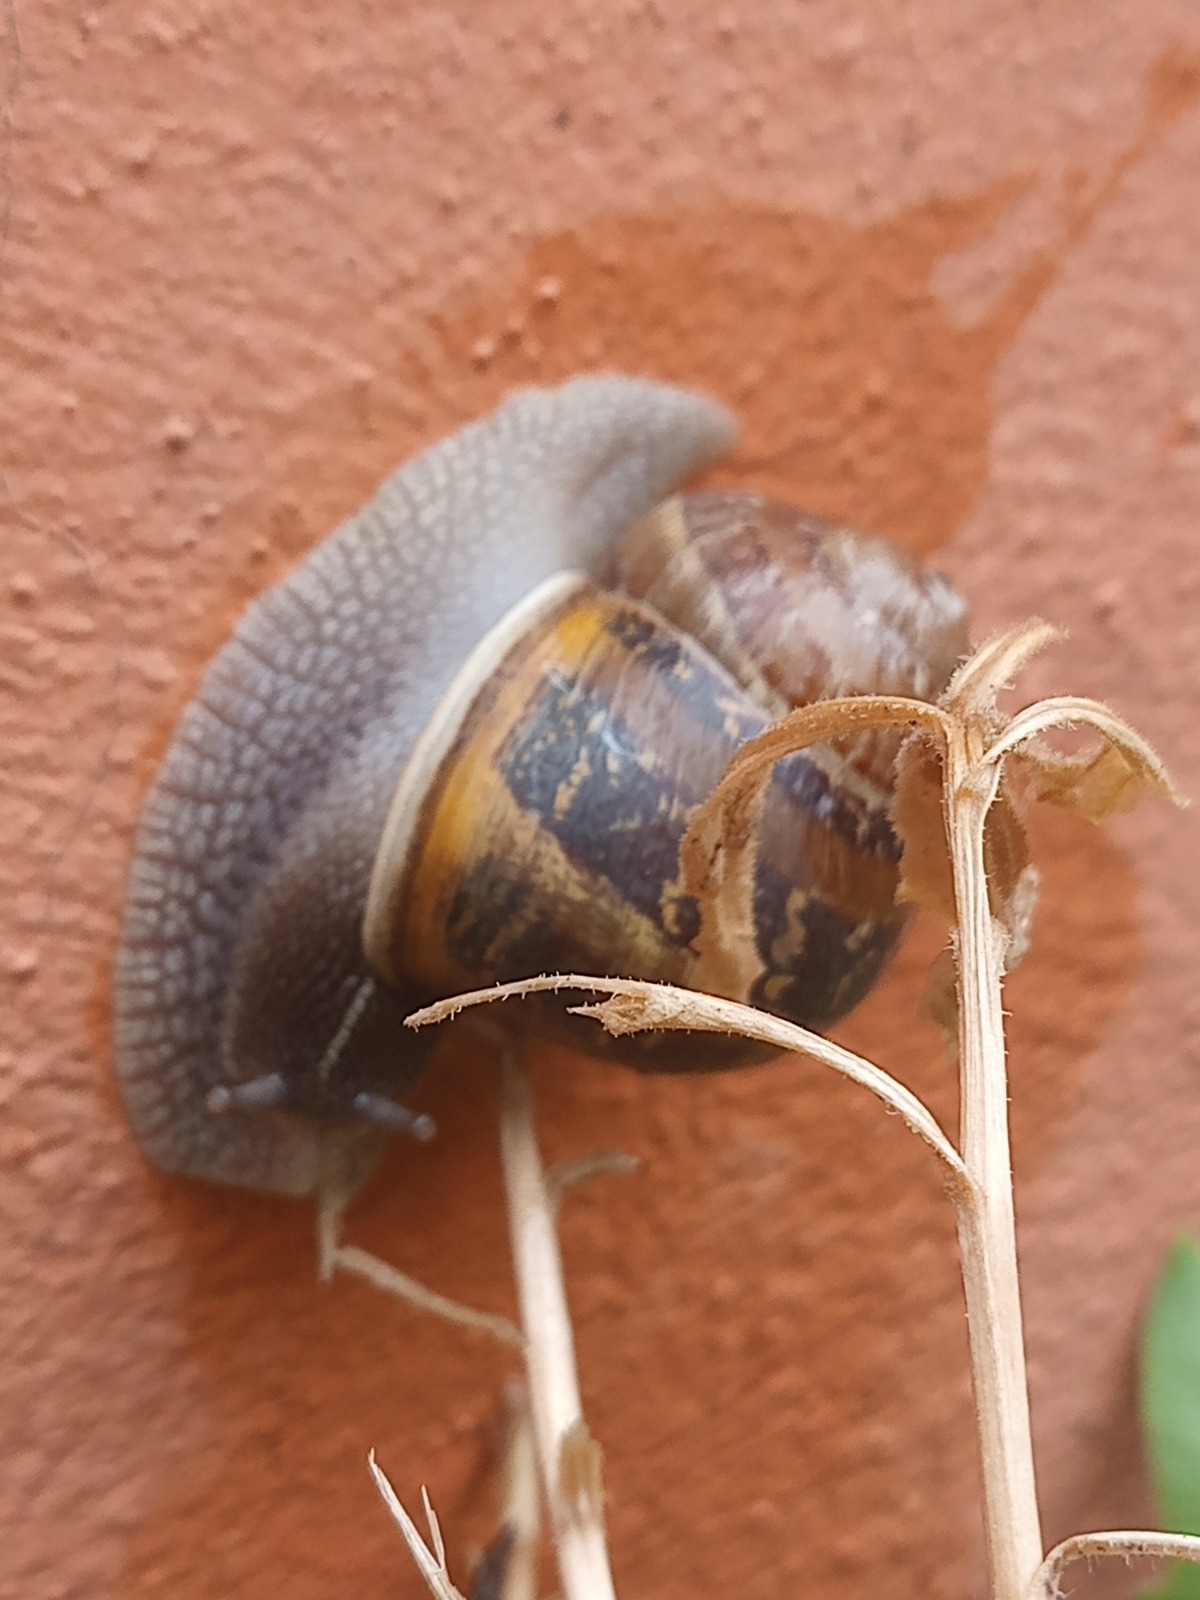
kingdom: Animalia
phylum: Mollusca
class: Gastropoda
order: Stylommatophora
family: Helicidae
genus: Cornu
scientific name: Cornu aspersum
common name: Brown garden snail
